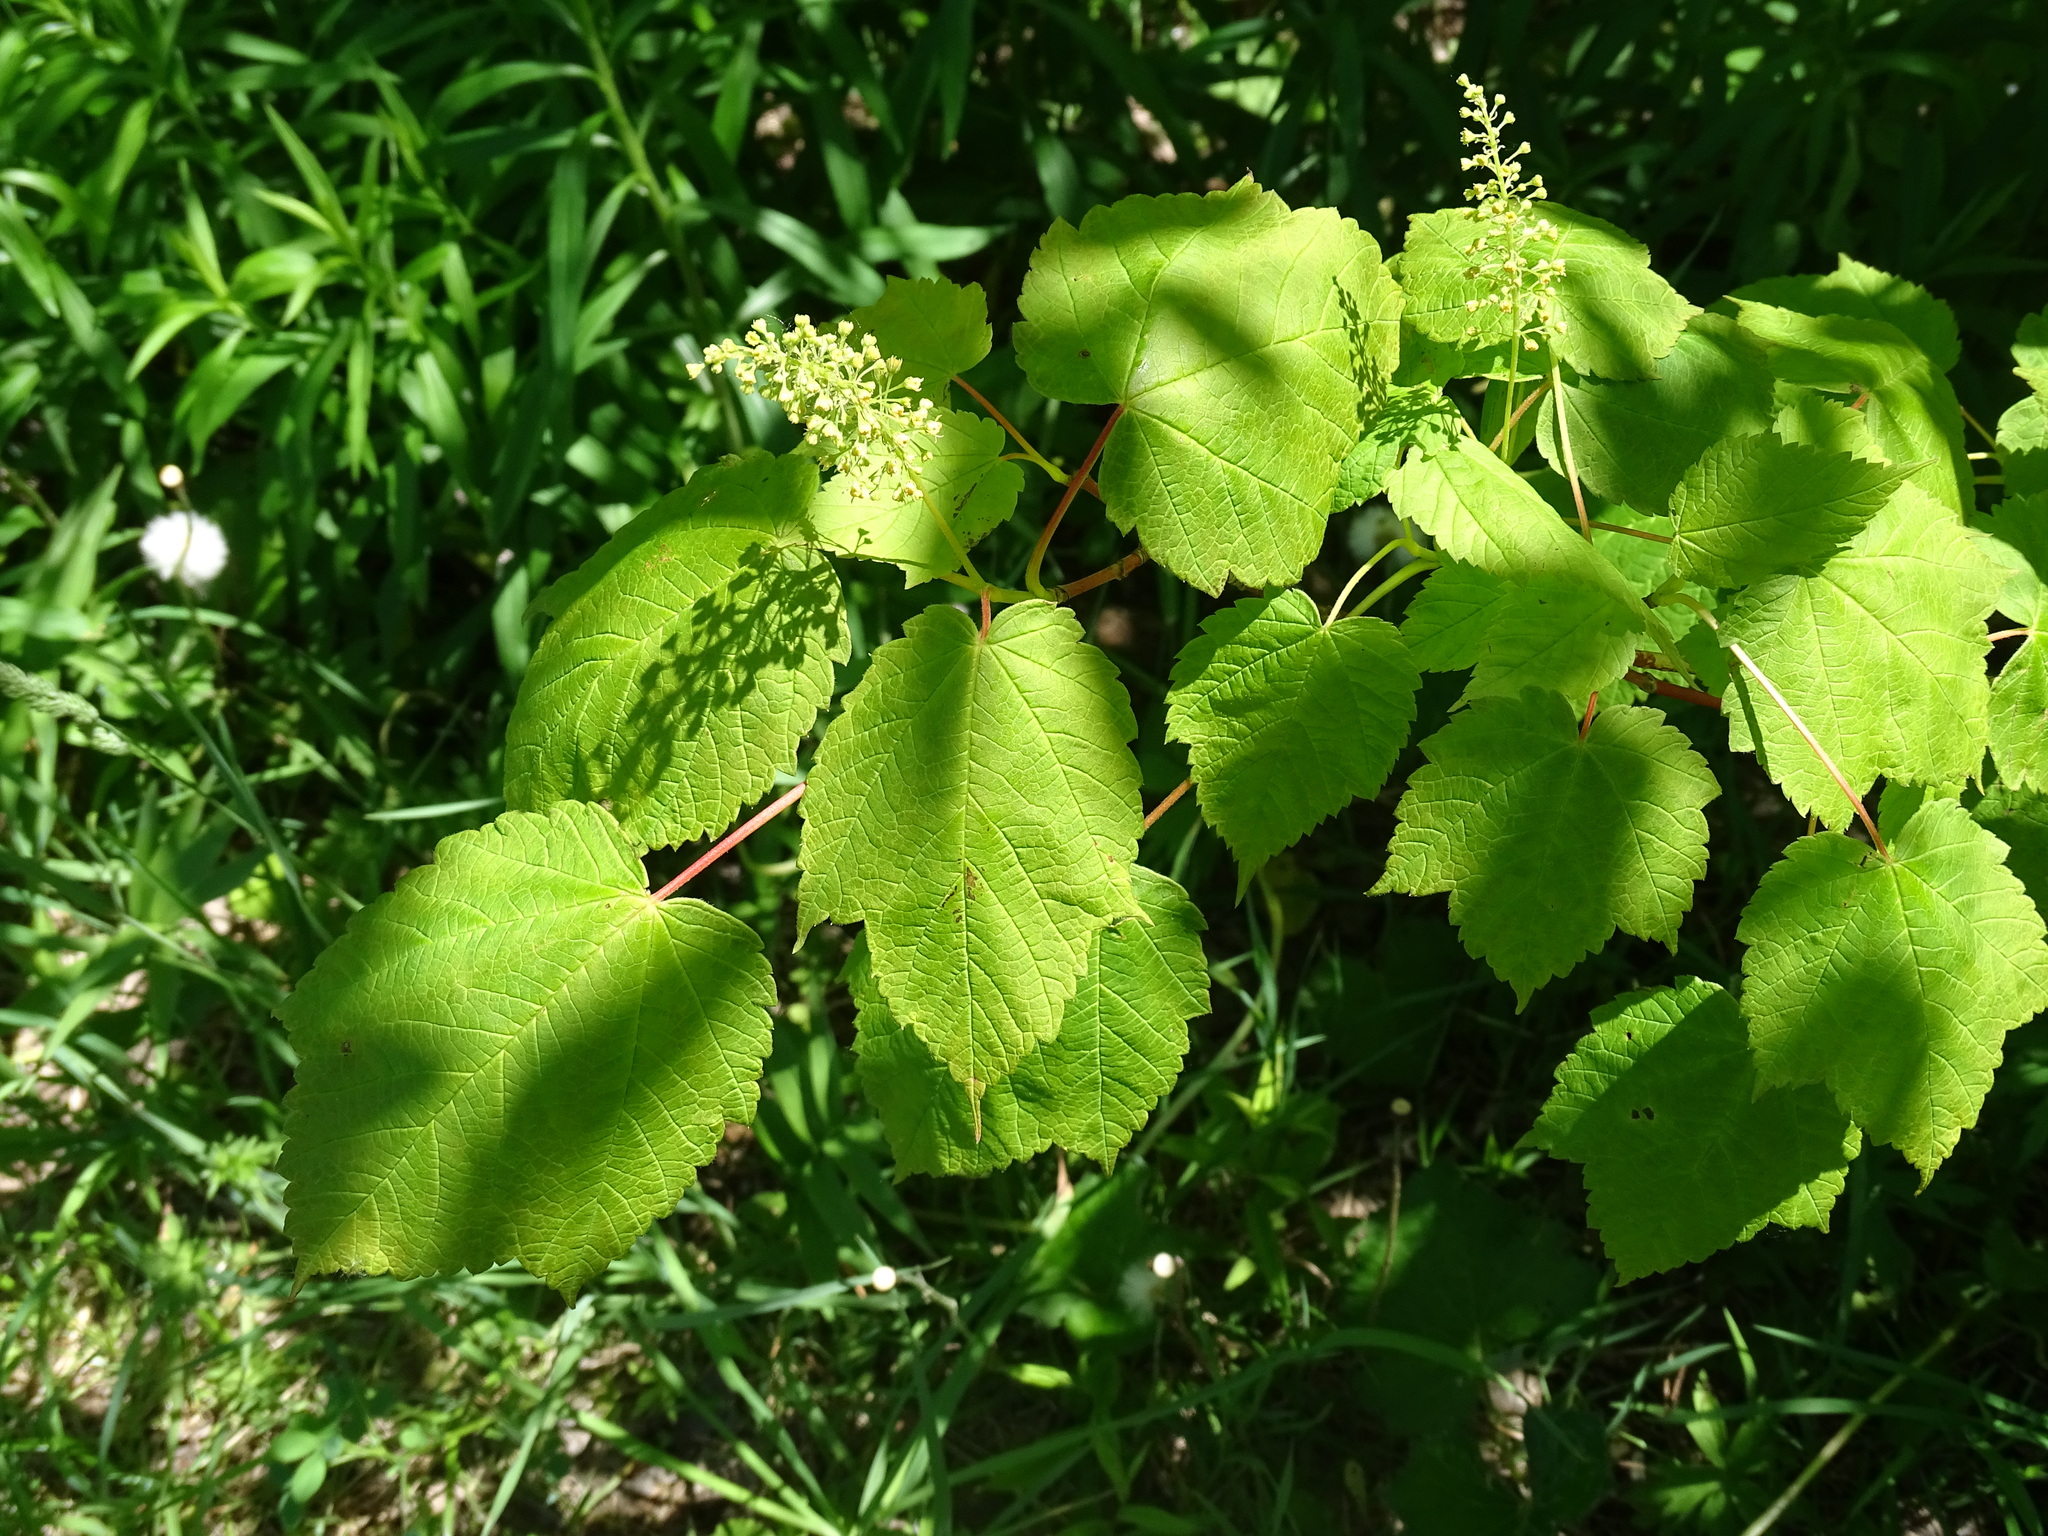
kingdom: Plantae
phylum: Tracheophyta
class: Magnoliopsida
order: Sapindales
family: Sapindaceae
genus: Acer
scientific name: Acer spicatum
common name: Mountain maple
